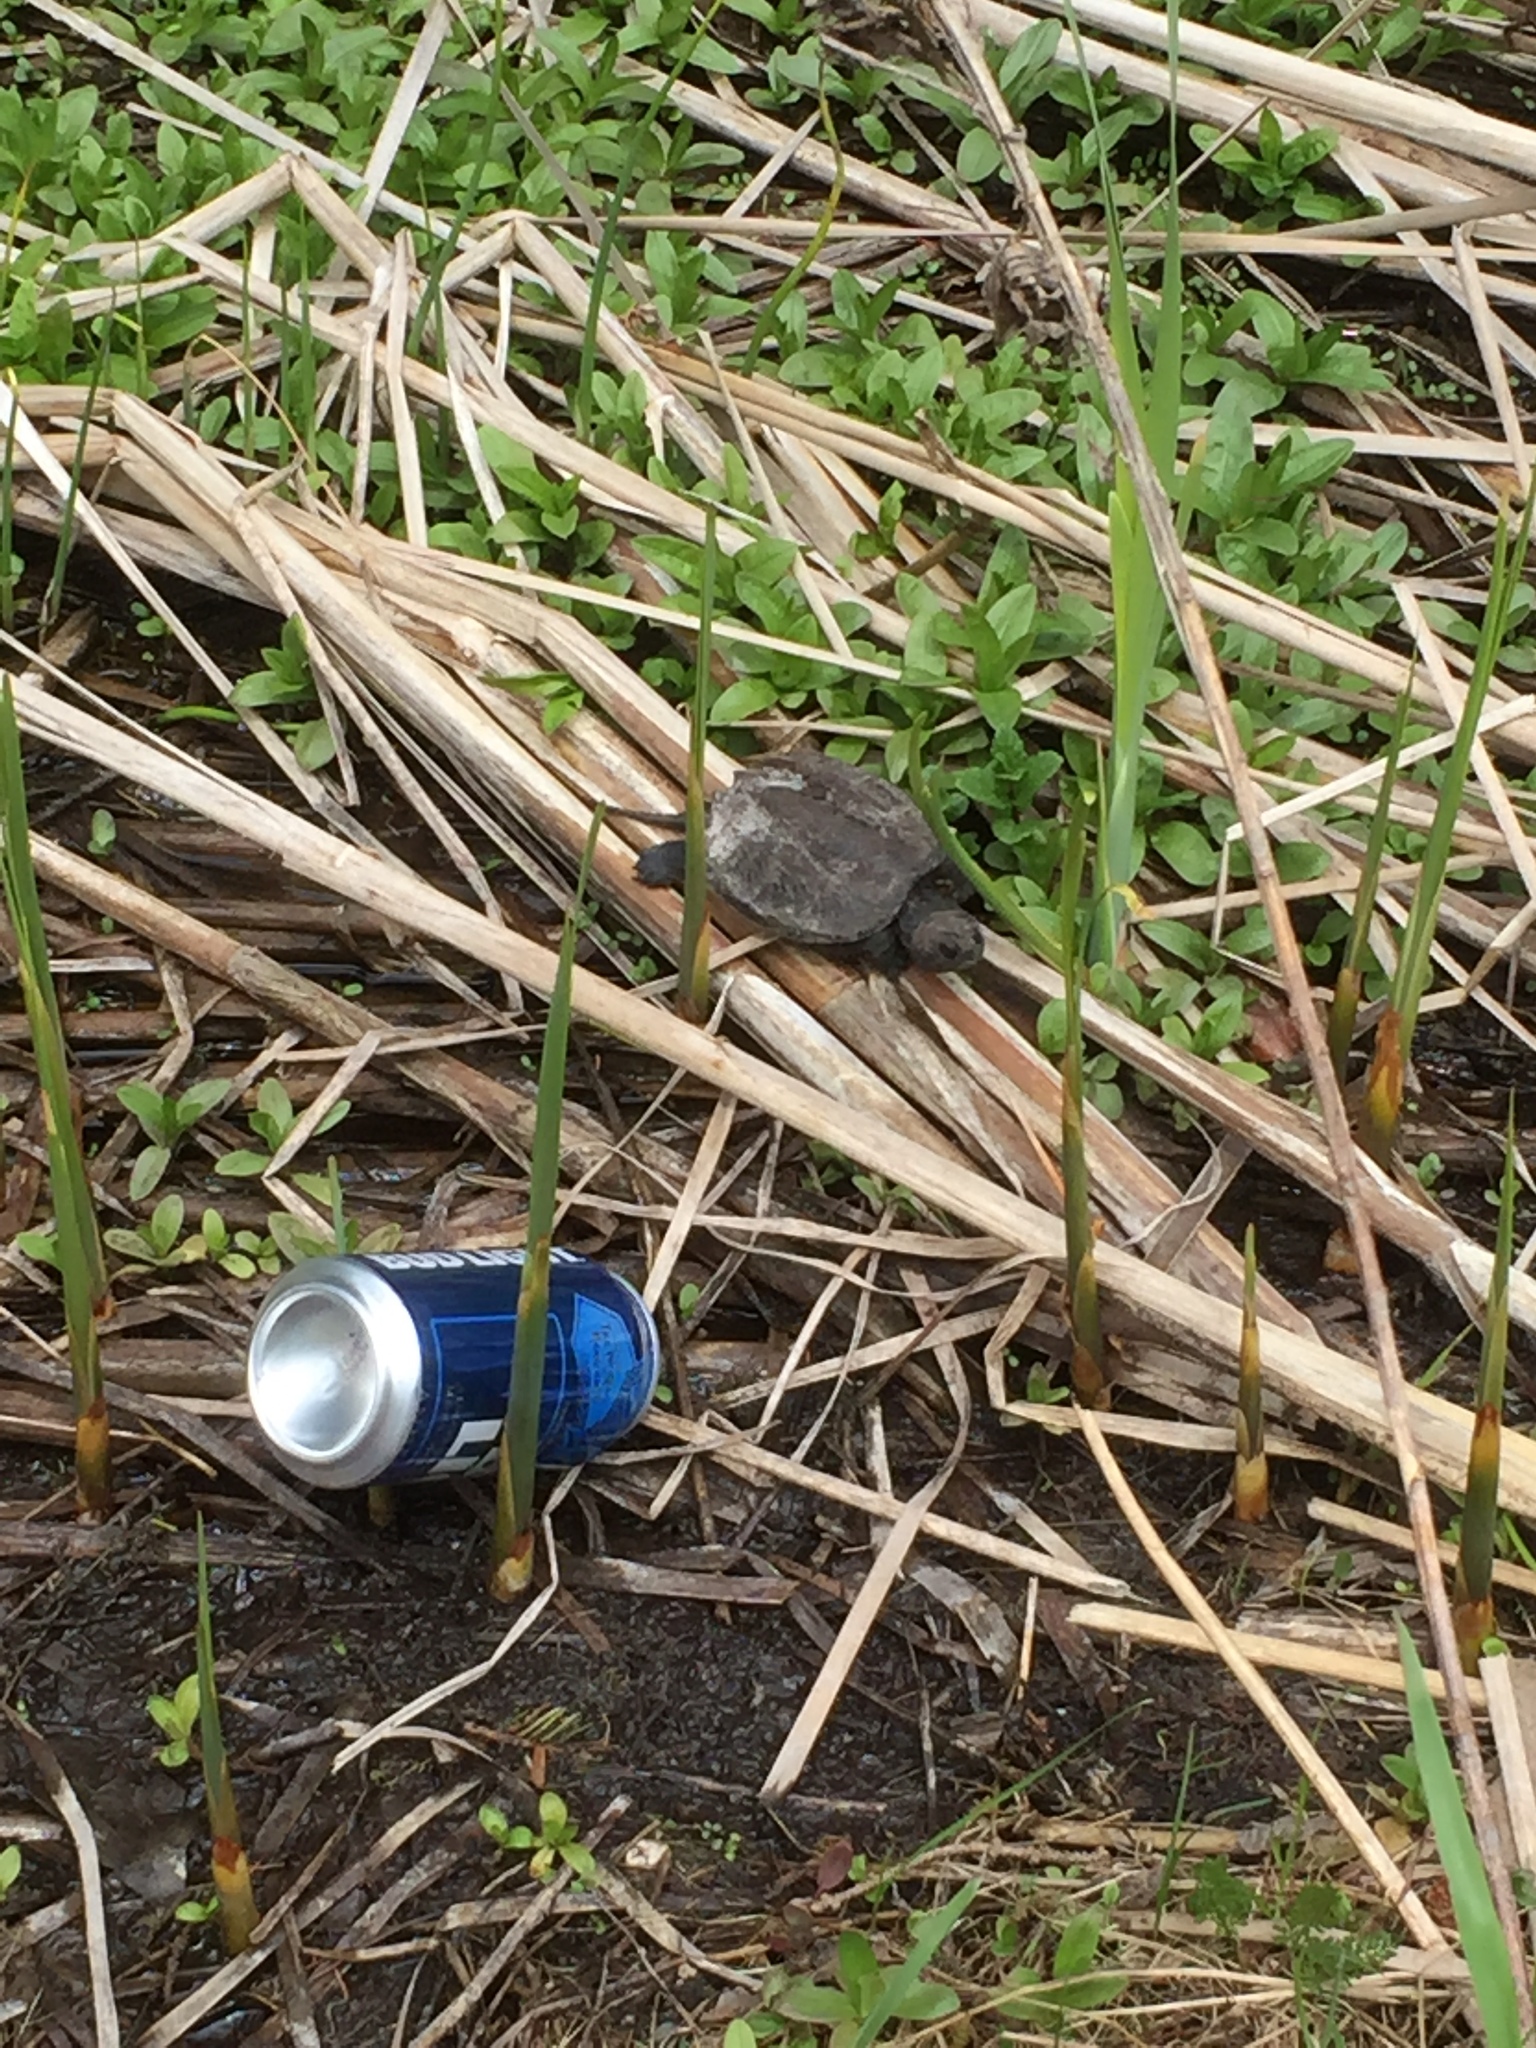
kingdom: Animalia
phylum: Chordata
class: Testudines
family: Chelydridae
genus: Chelydra
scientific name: Chelydra serpentina
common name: Common snapping turtle
